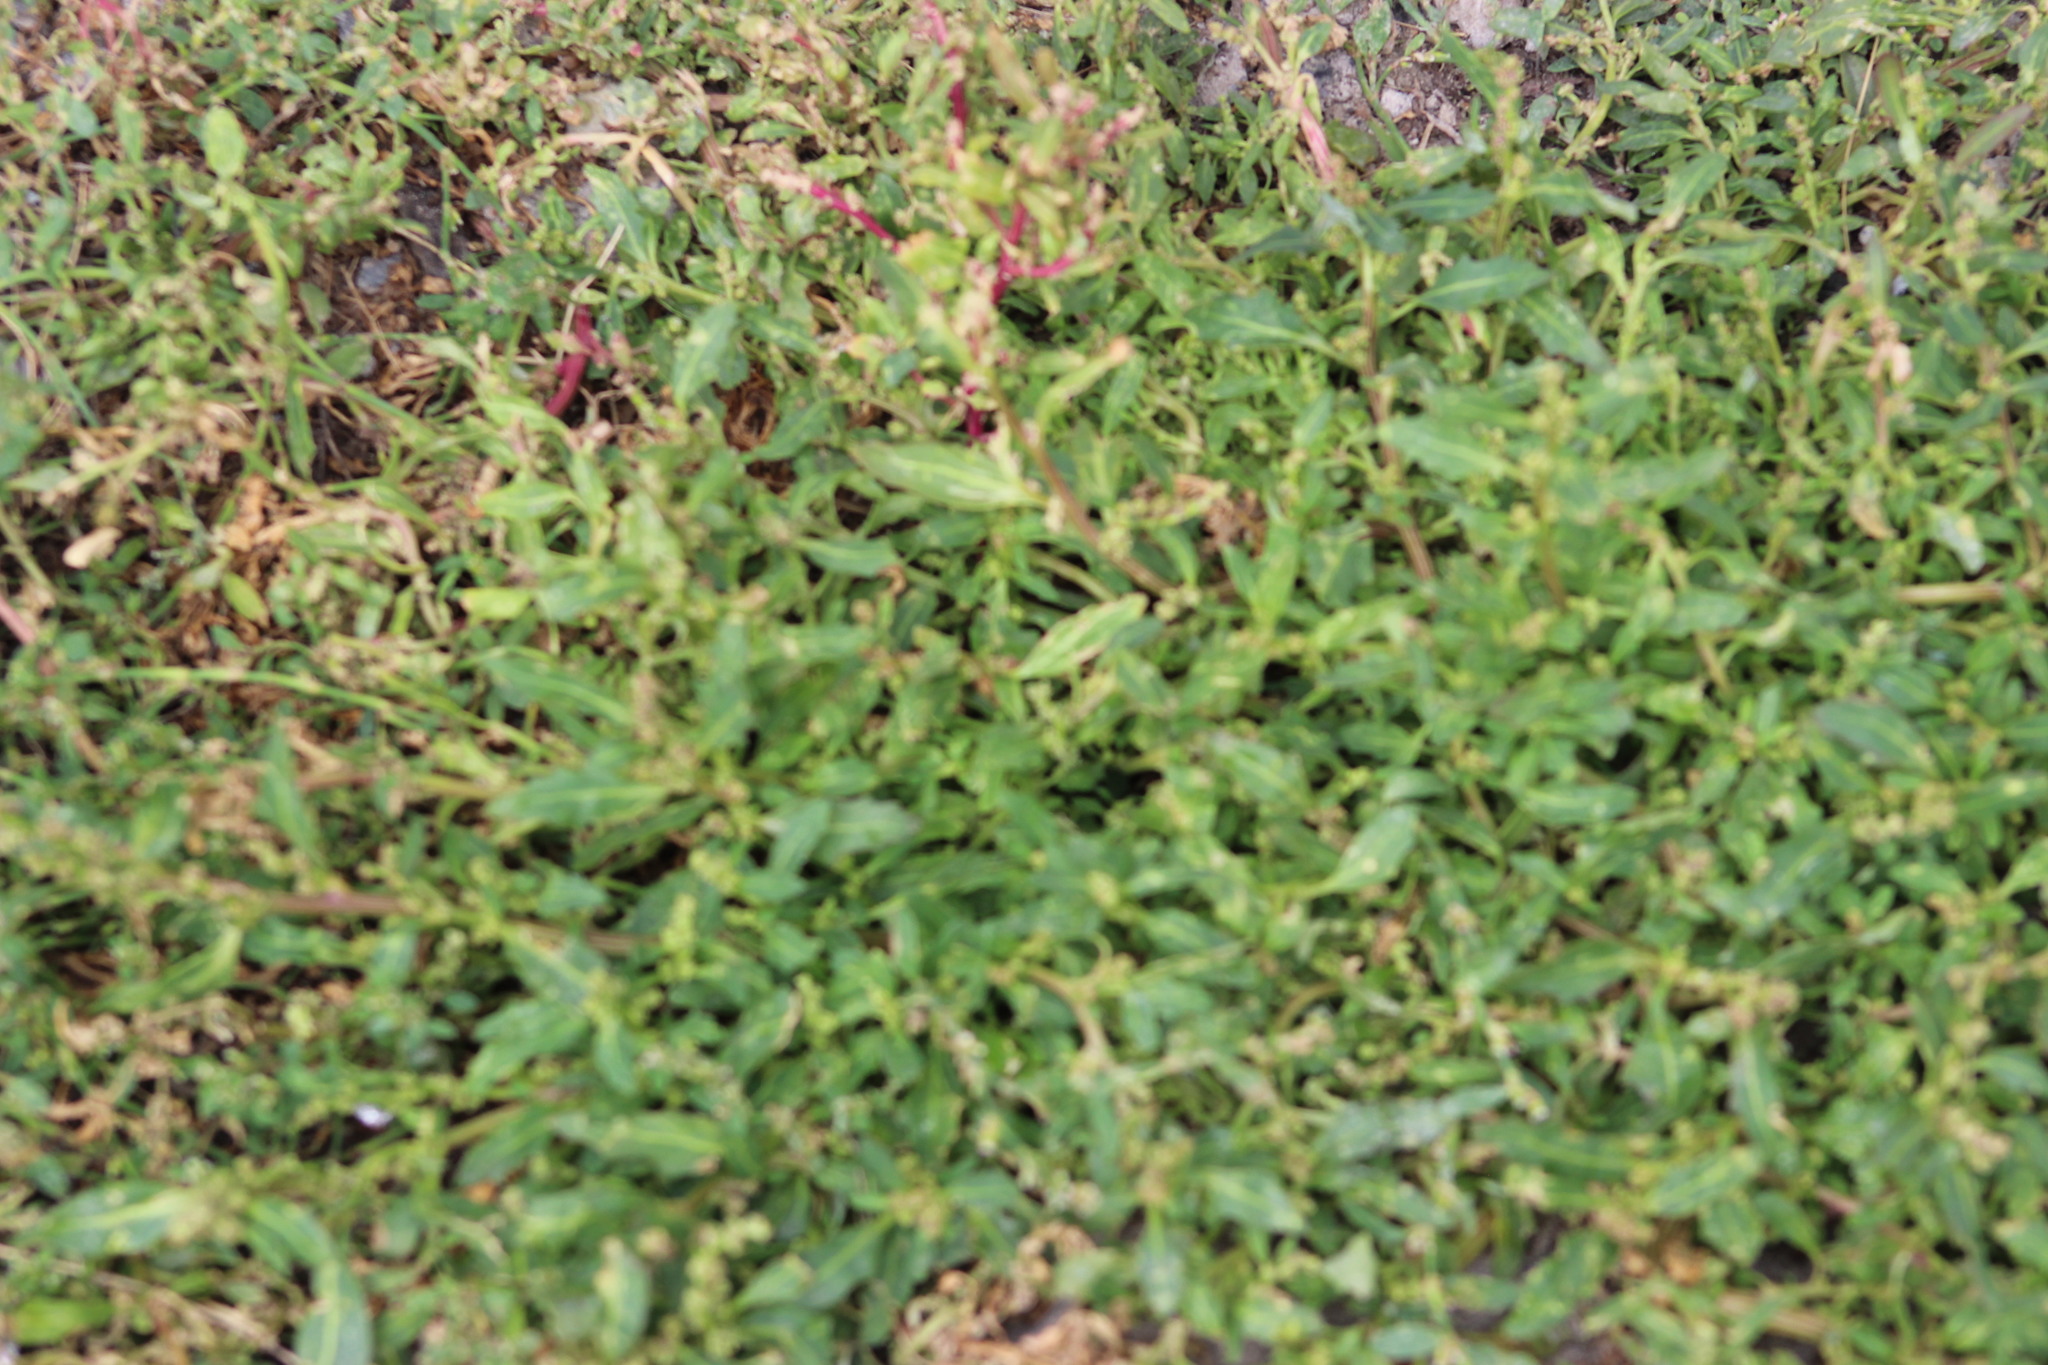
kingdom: Plantae
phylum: Tracheophyta
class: Magnoliopsida
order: Caryophyllales
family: Amaranthaceae
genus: Oxybasis
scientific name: Oxybasis glauca
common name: Glaucous goosefoot
